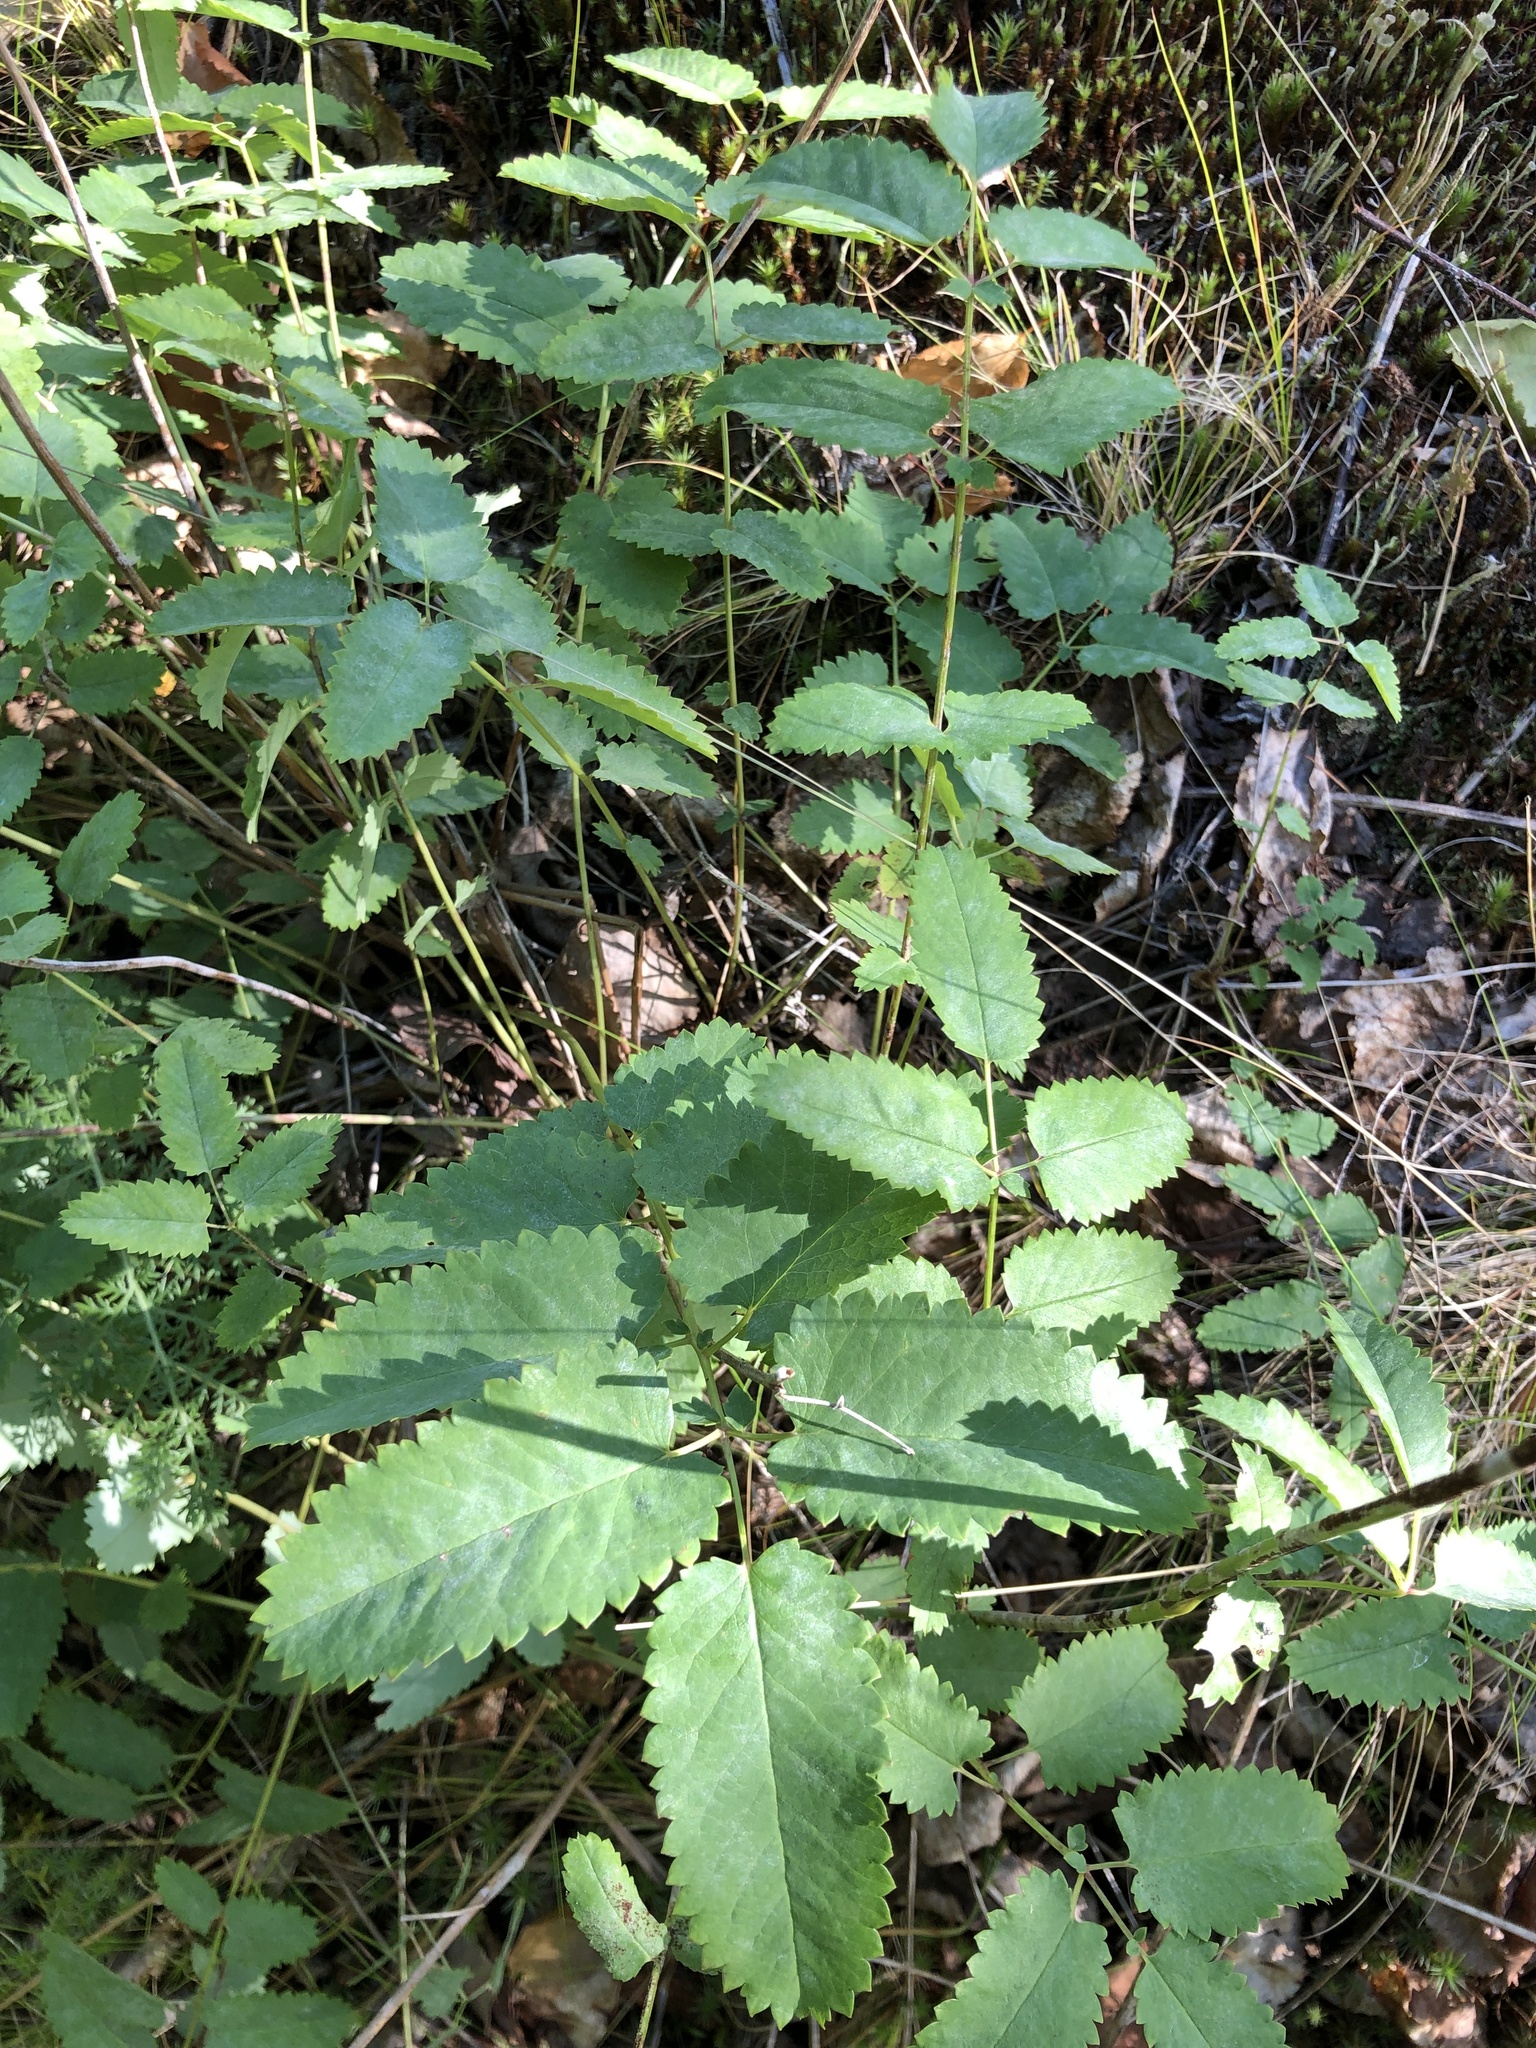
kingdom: Plantae
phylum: Tracheophyta
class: Magnoliopsida
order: Rosales
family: Rosaceae
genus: Sanguisorba
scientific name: Sanguisorba officinalis
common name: Great burnet
